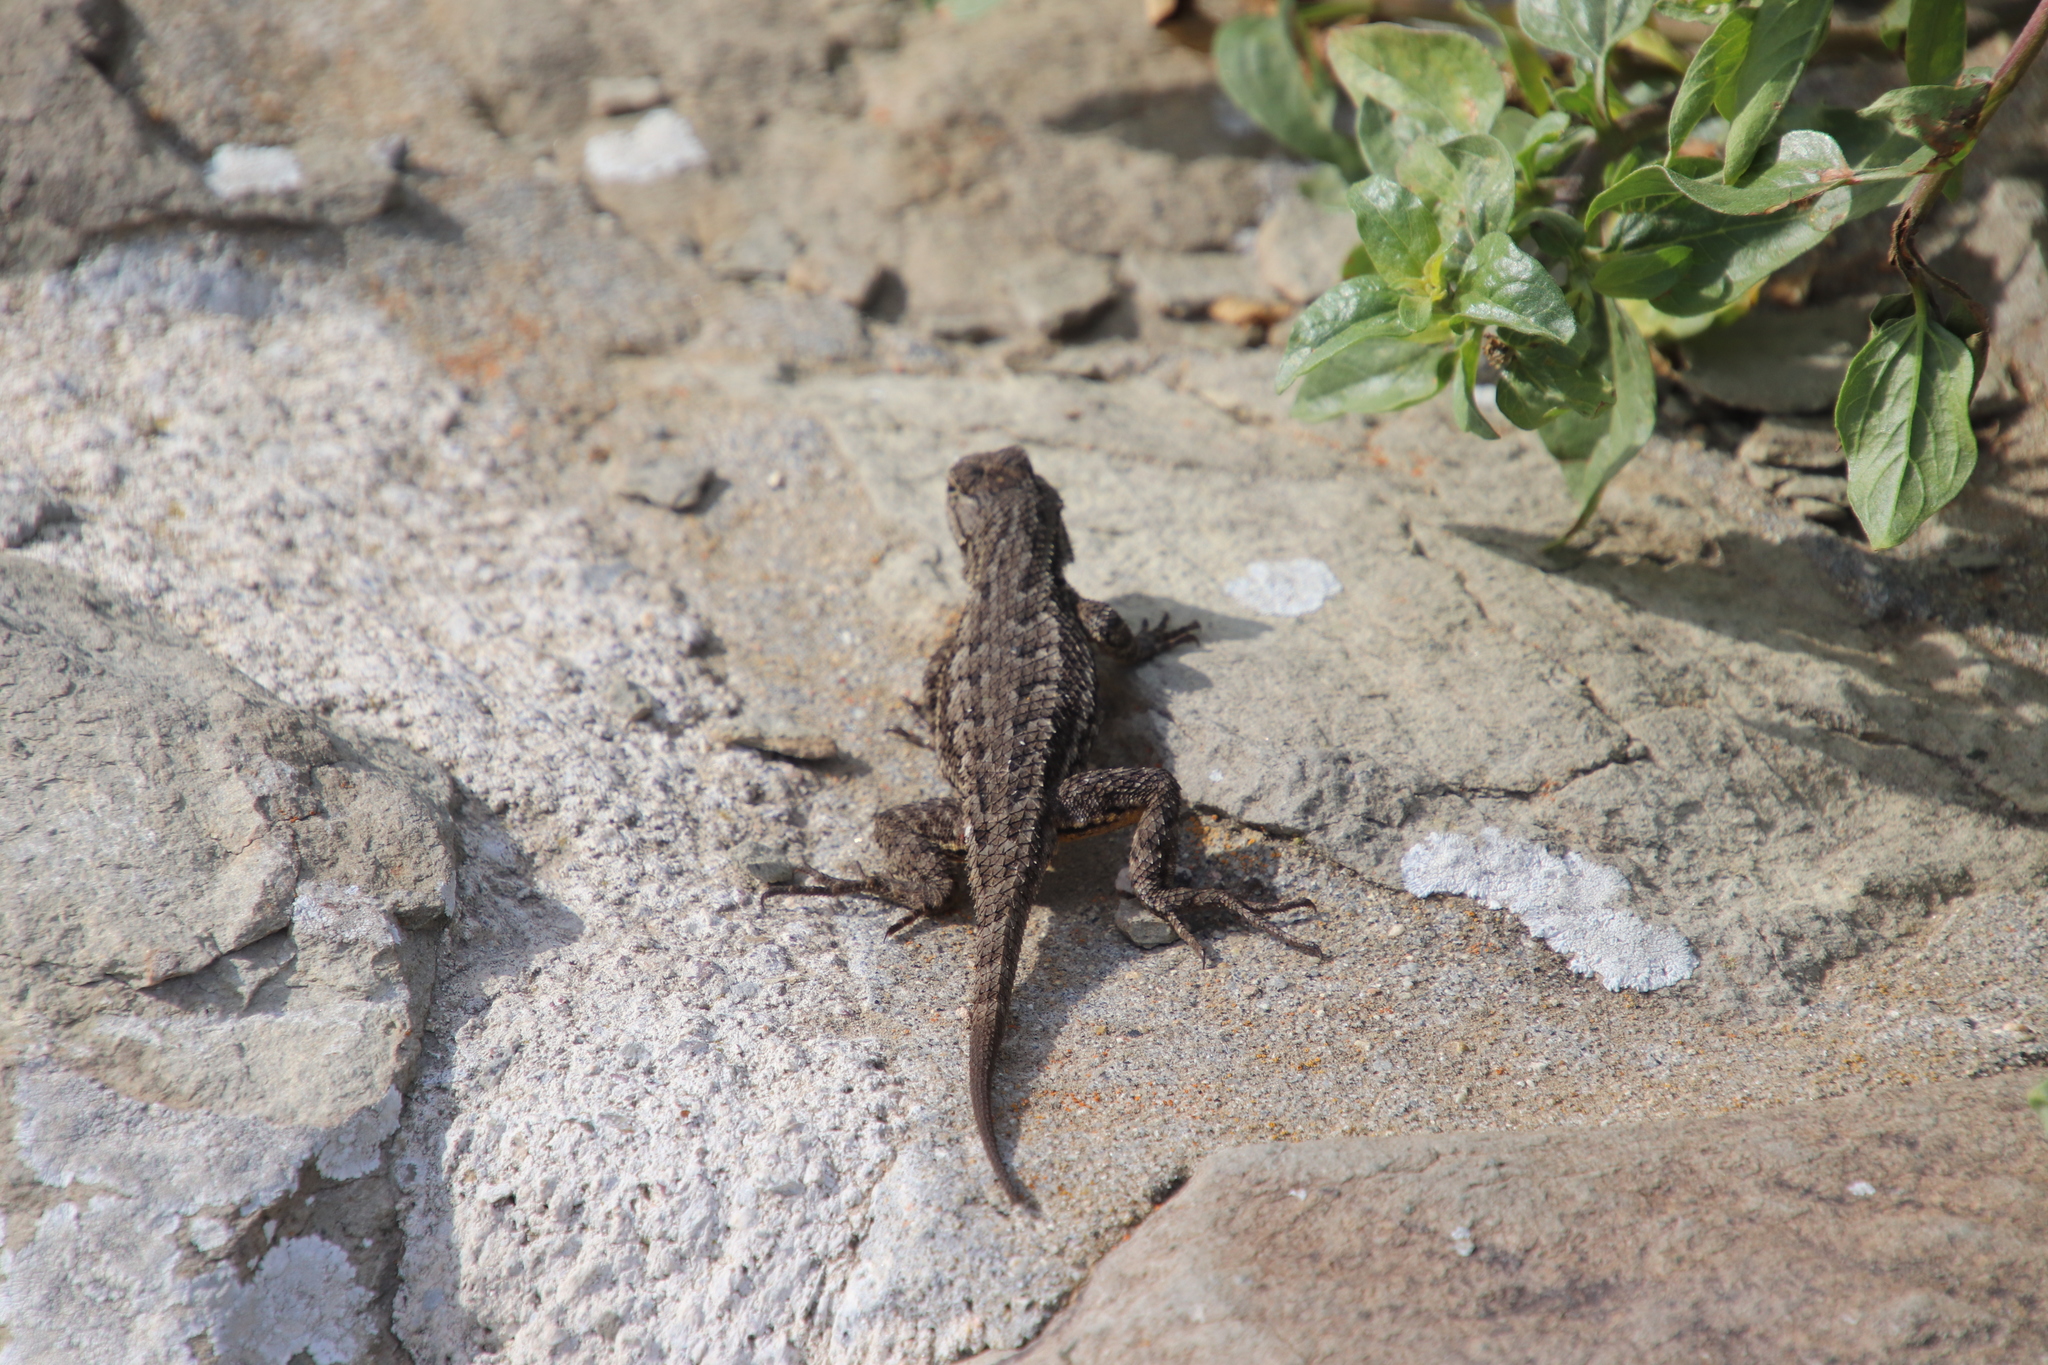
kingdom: Animalia
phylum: Chordata
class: Squamata
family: Phrynosomatidae
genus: Sceloporus
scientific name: Sceloporus occidentalis
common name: Western fence lizard
